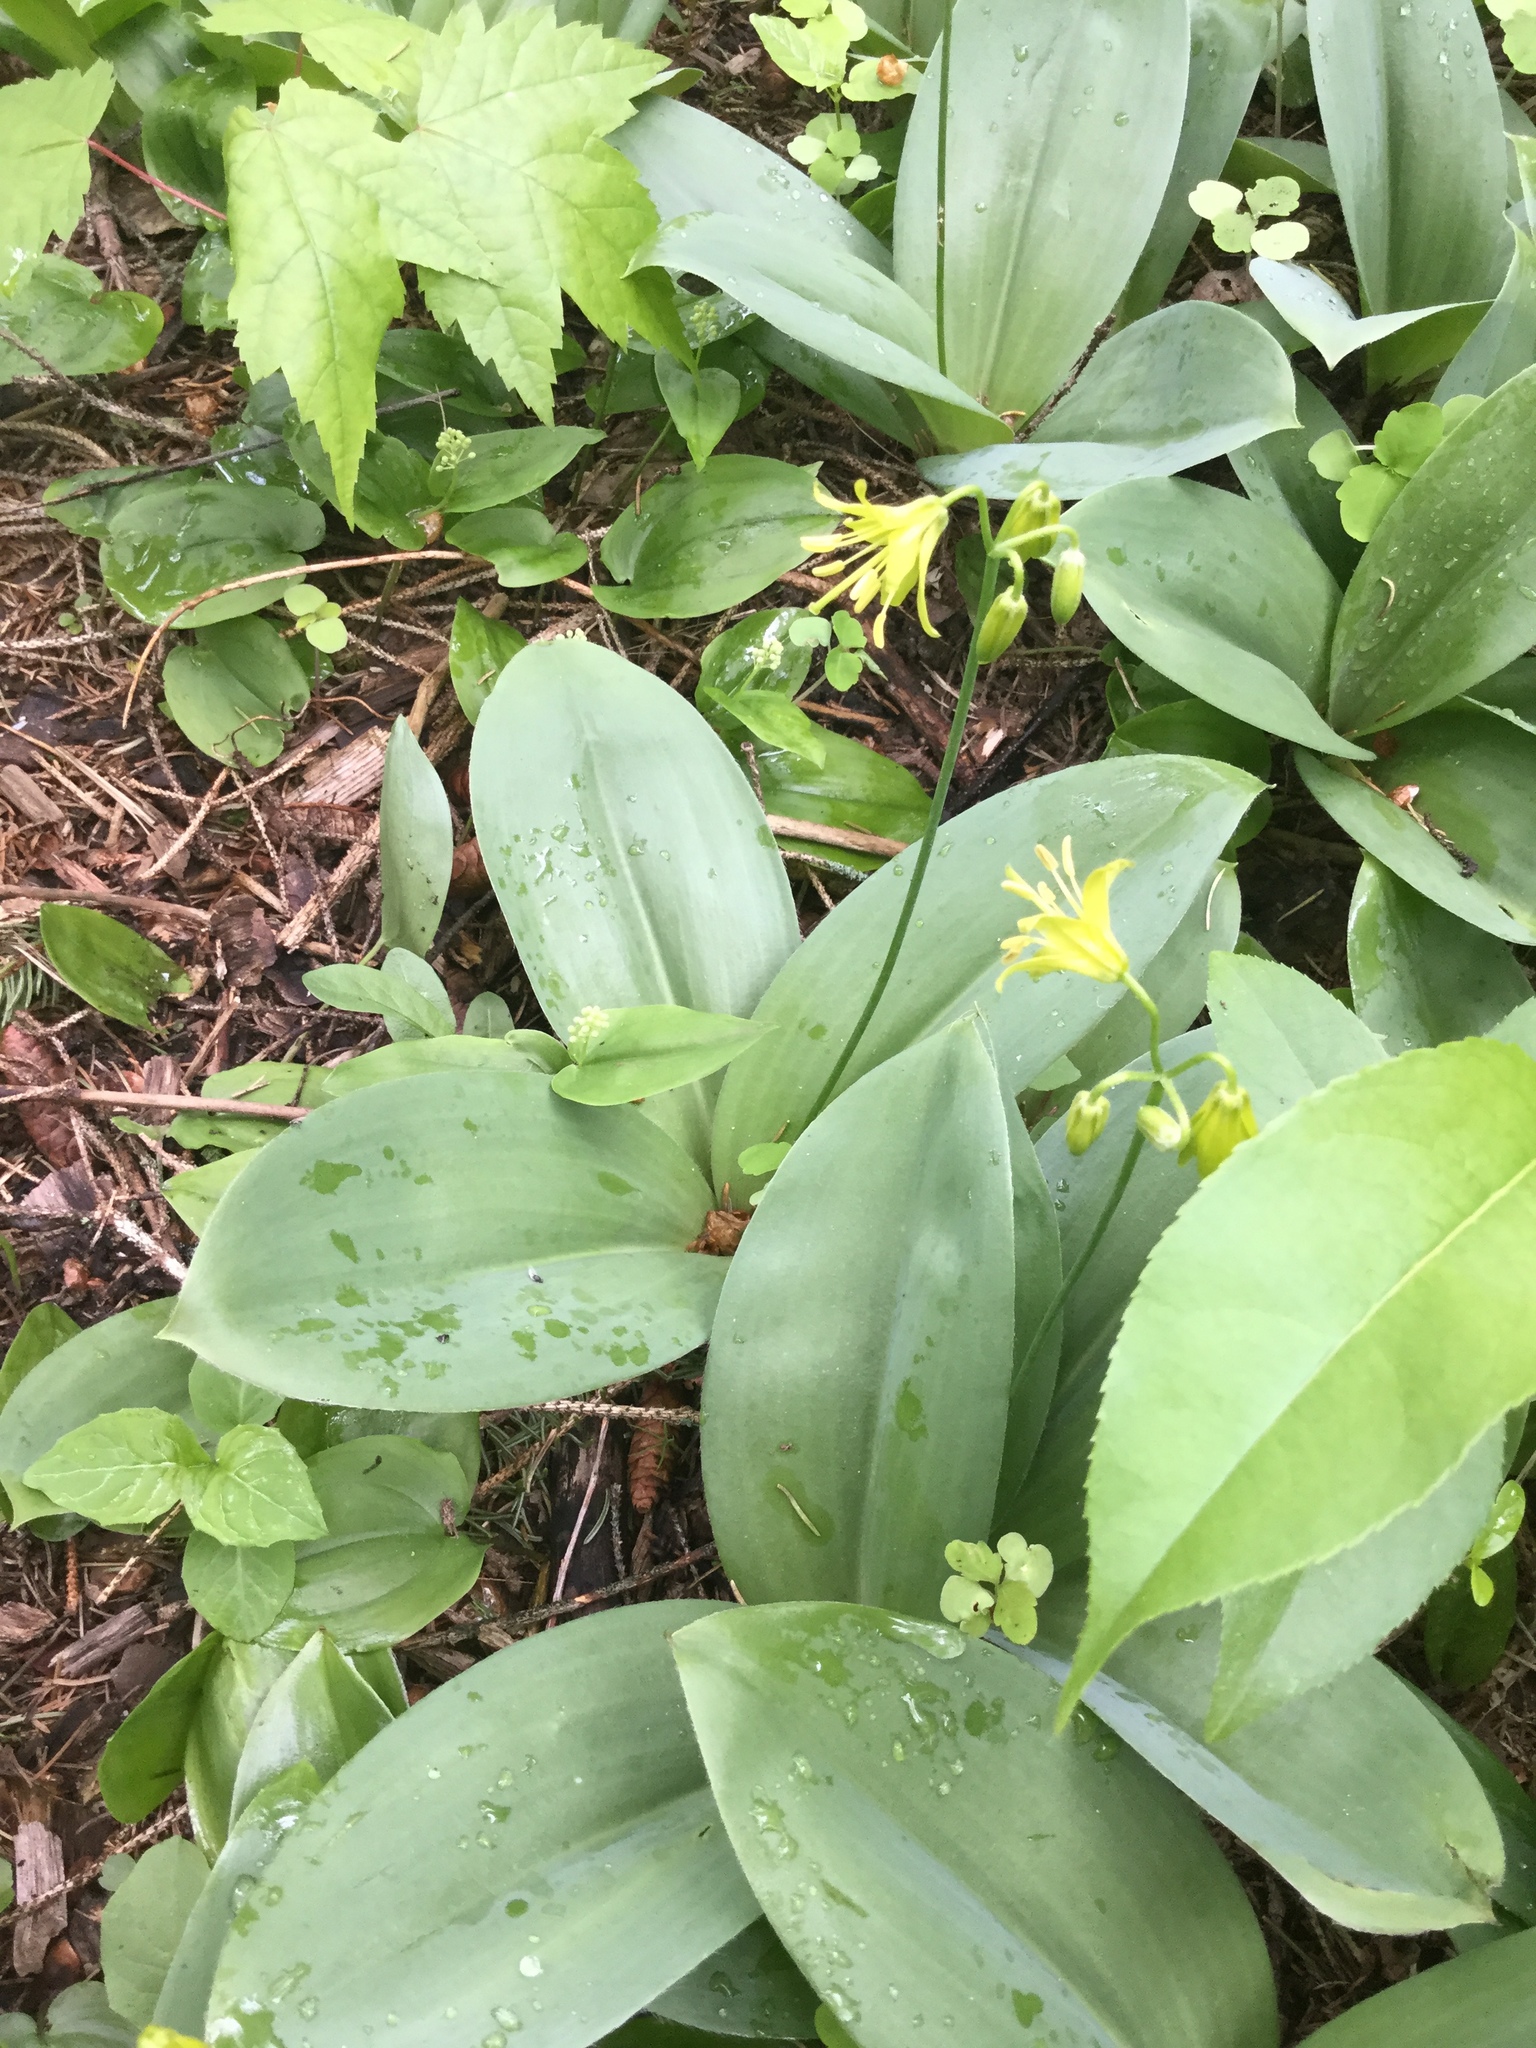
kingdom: Plantae
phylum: Tracheophyta
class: Liliopsida
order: Liliales
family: Liliaceae
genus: Clintonia
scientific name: Clintonia borealis
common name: Yellow clintonia
